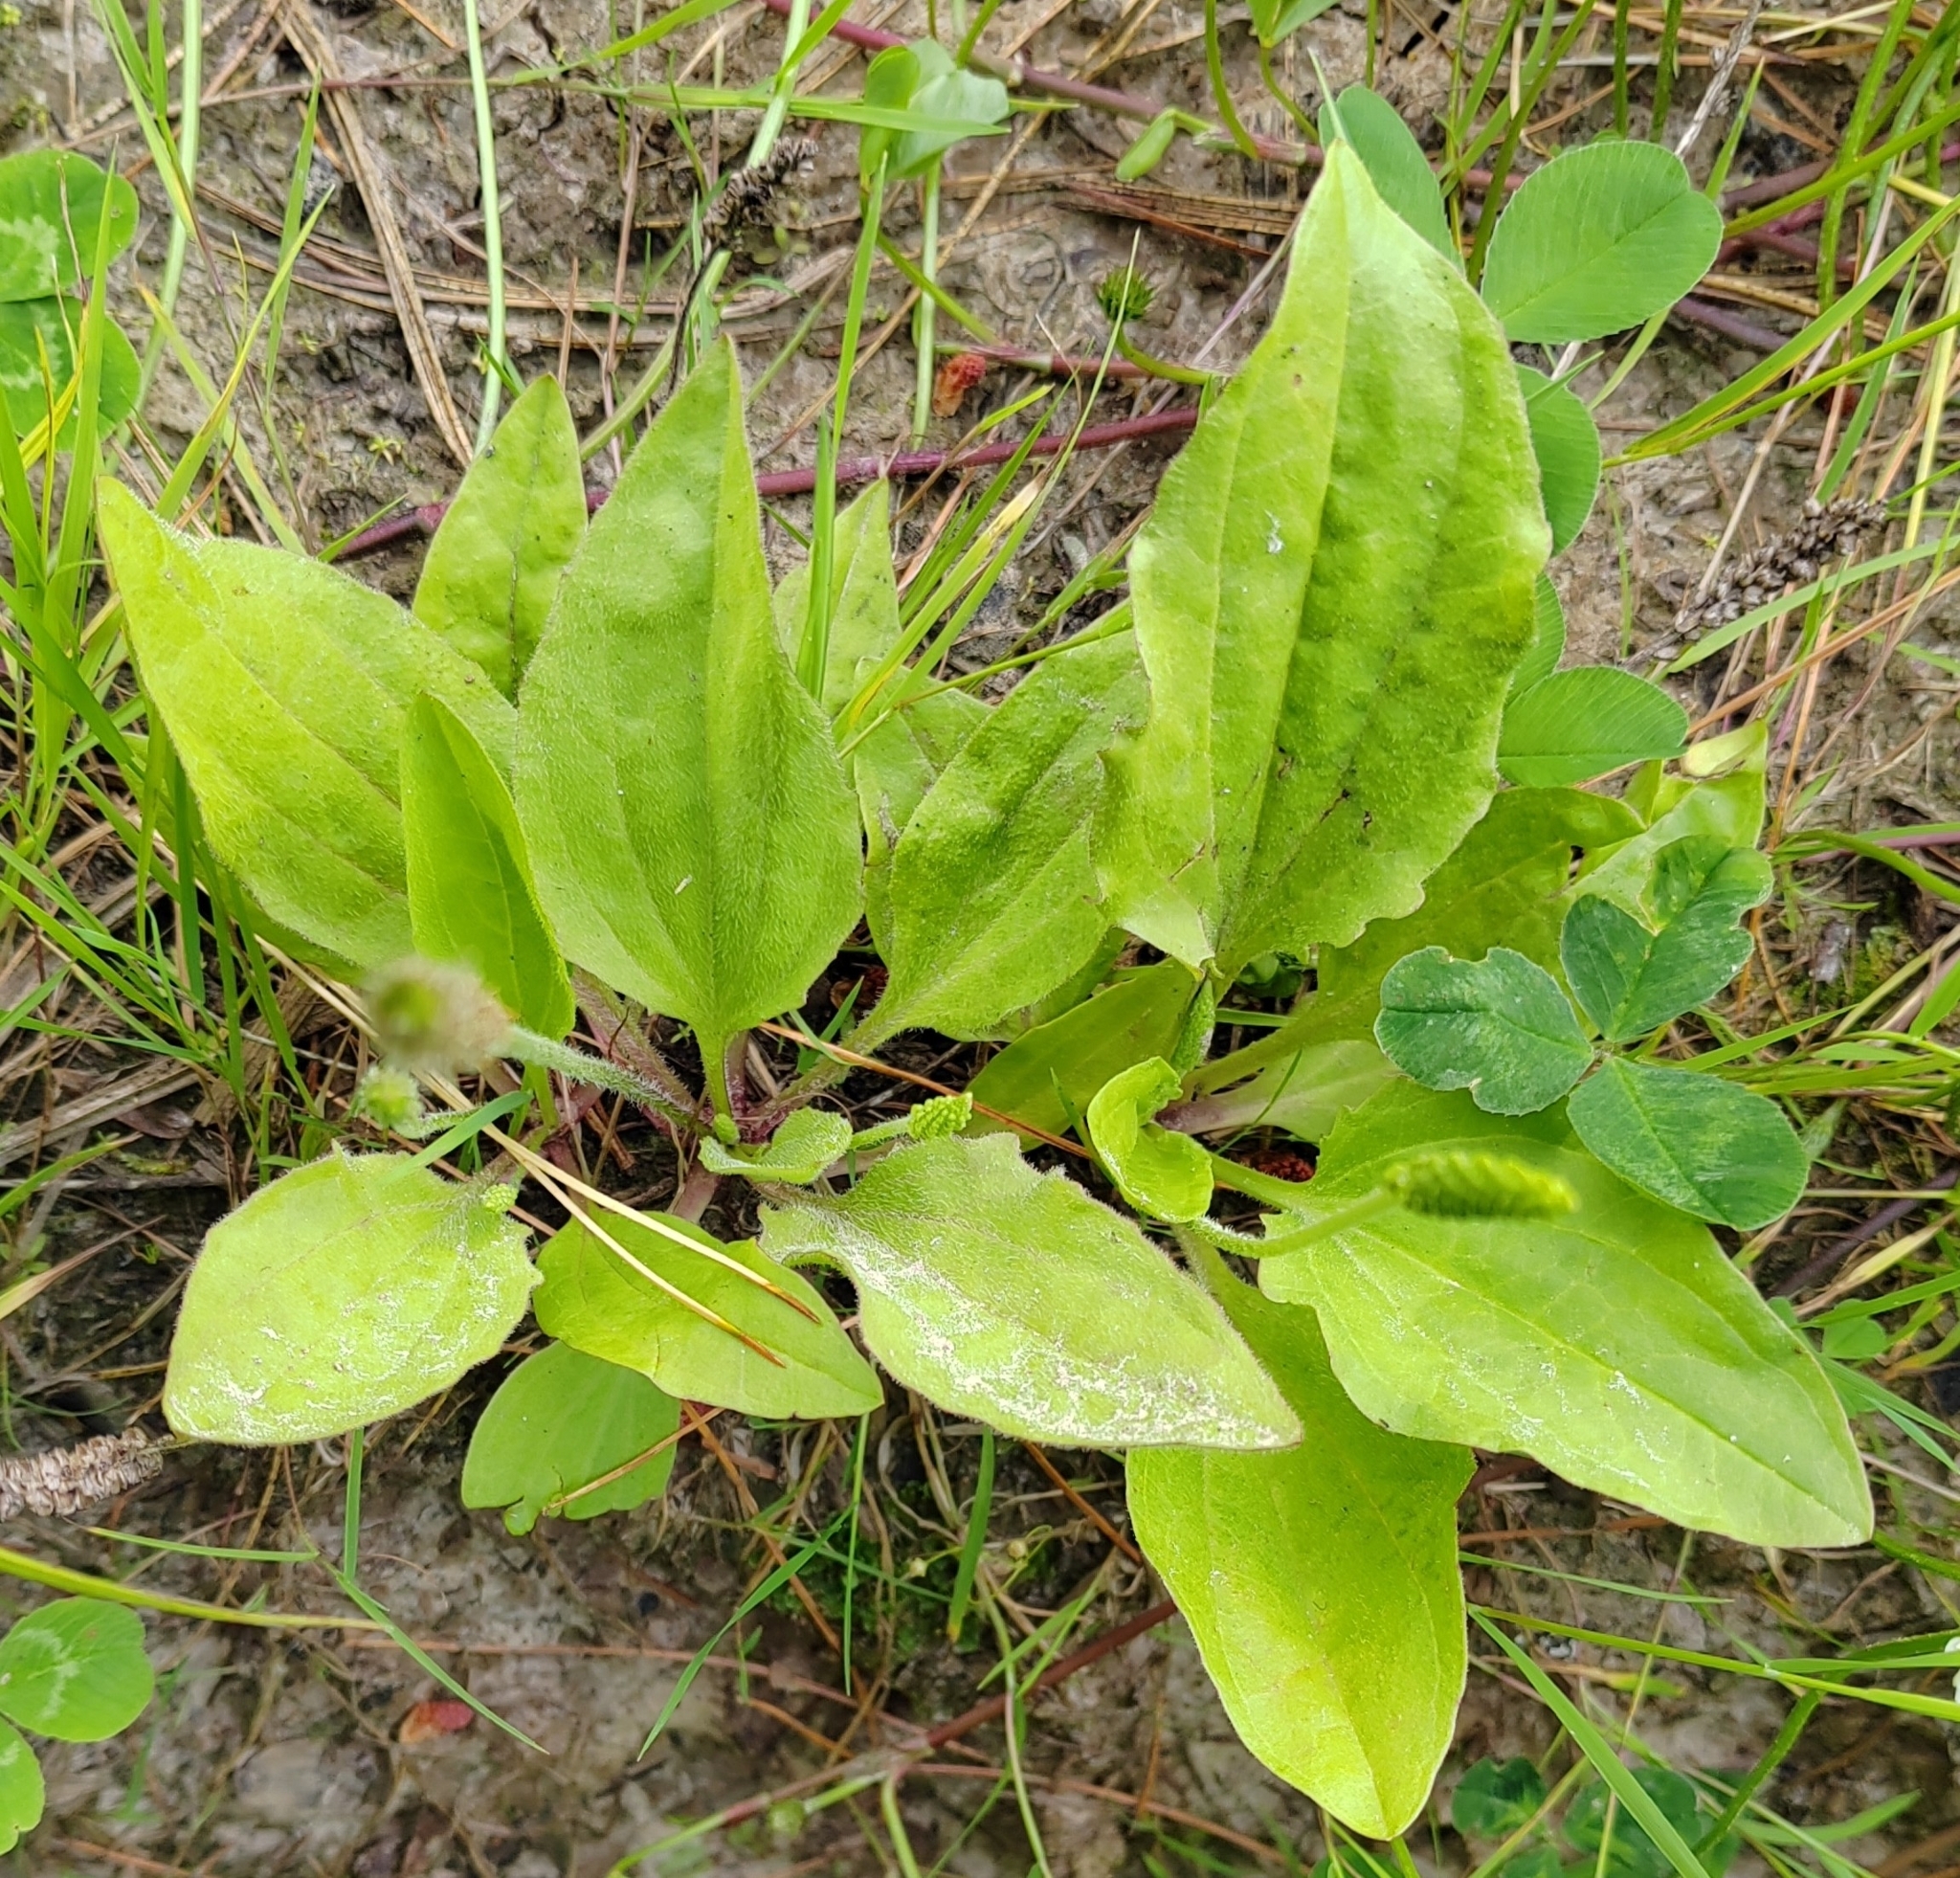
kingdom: Plantae
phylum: Tracheophyta
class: Magnoliopsida
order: Lamiales
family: Plantaginaceae
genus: Plantago
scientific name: Plantago major
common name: Common plantain
